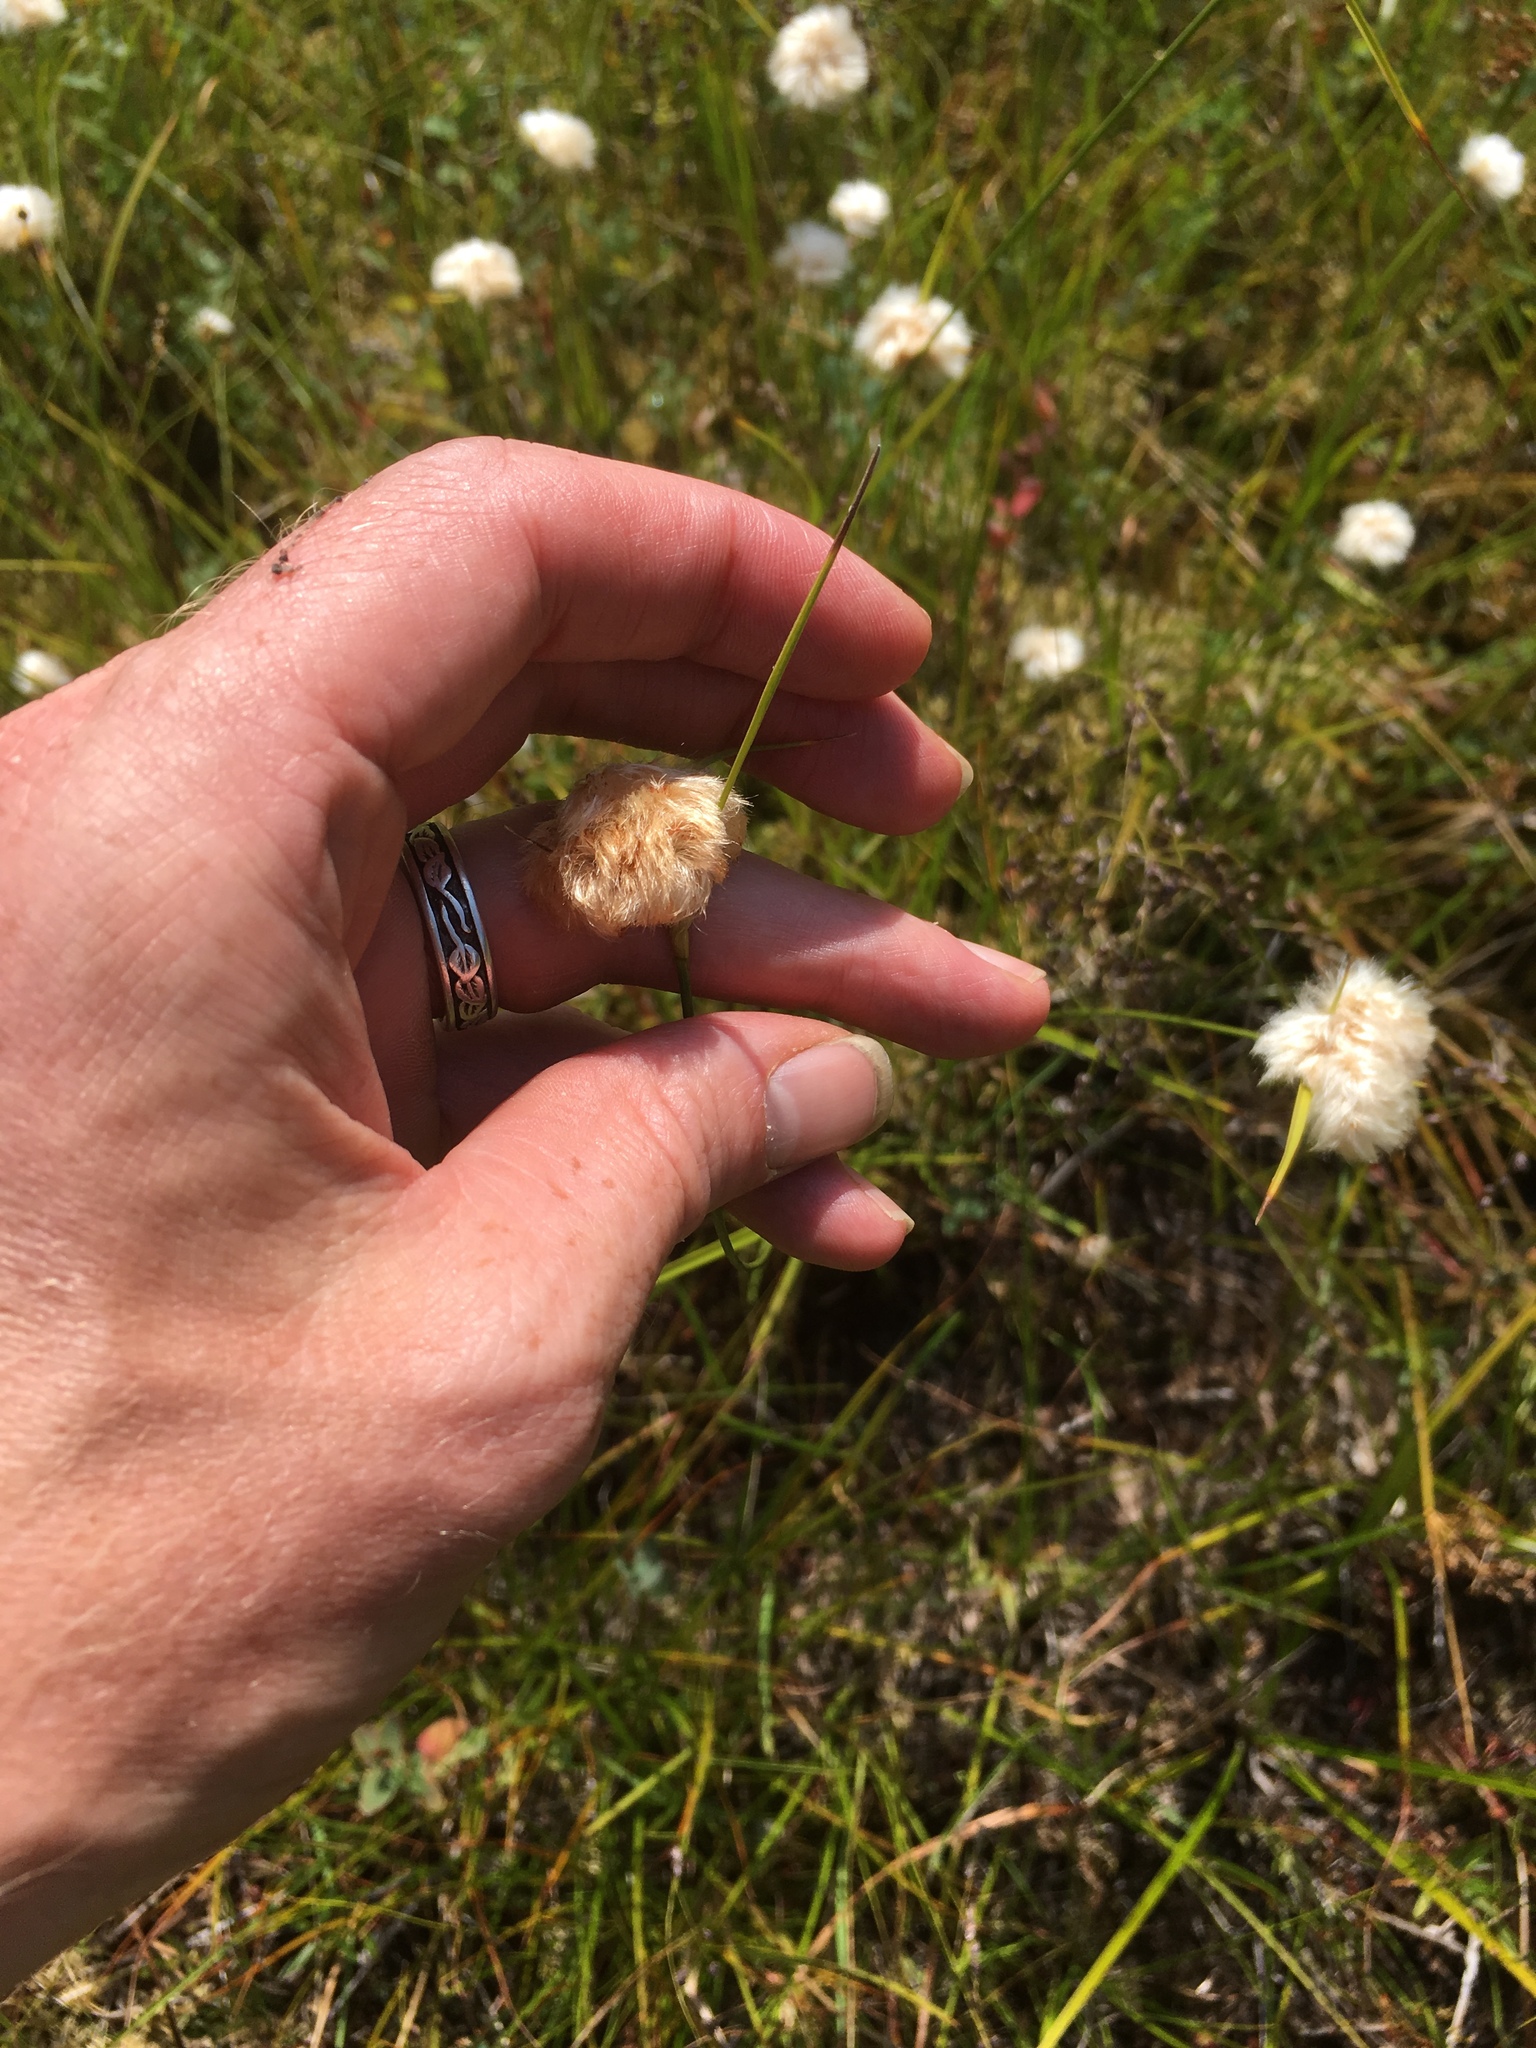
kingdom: Plantae
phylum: Tracheophyta
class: Liliopsida
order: Poales
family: Cyperaceae
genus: Eriophorum
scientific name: Eriophorum virginicum
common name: Tawny cottongrass
